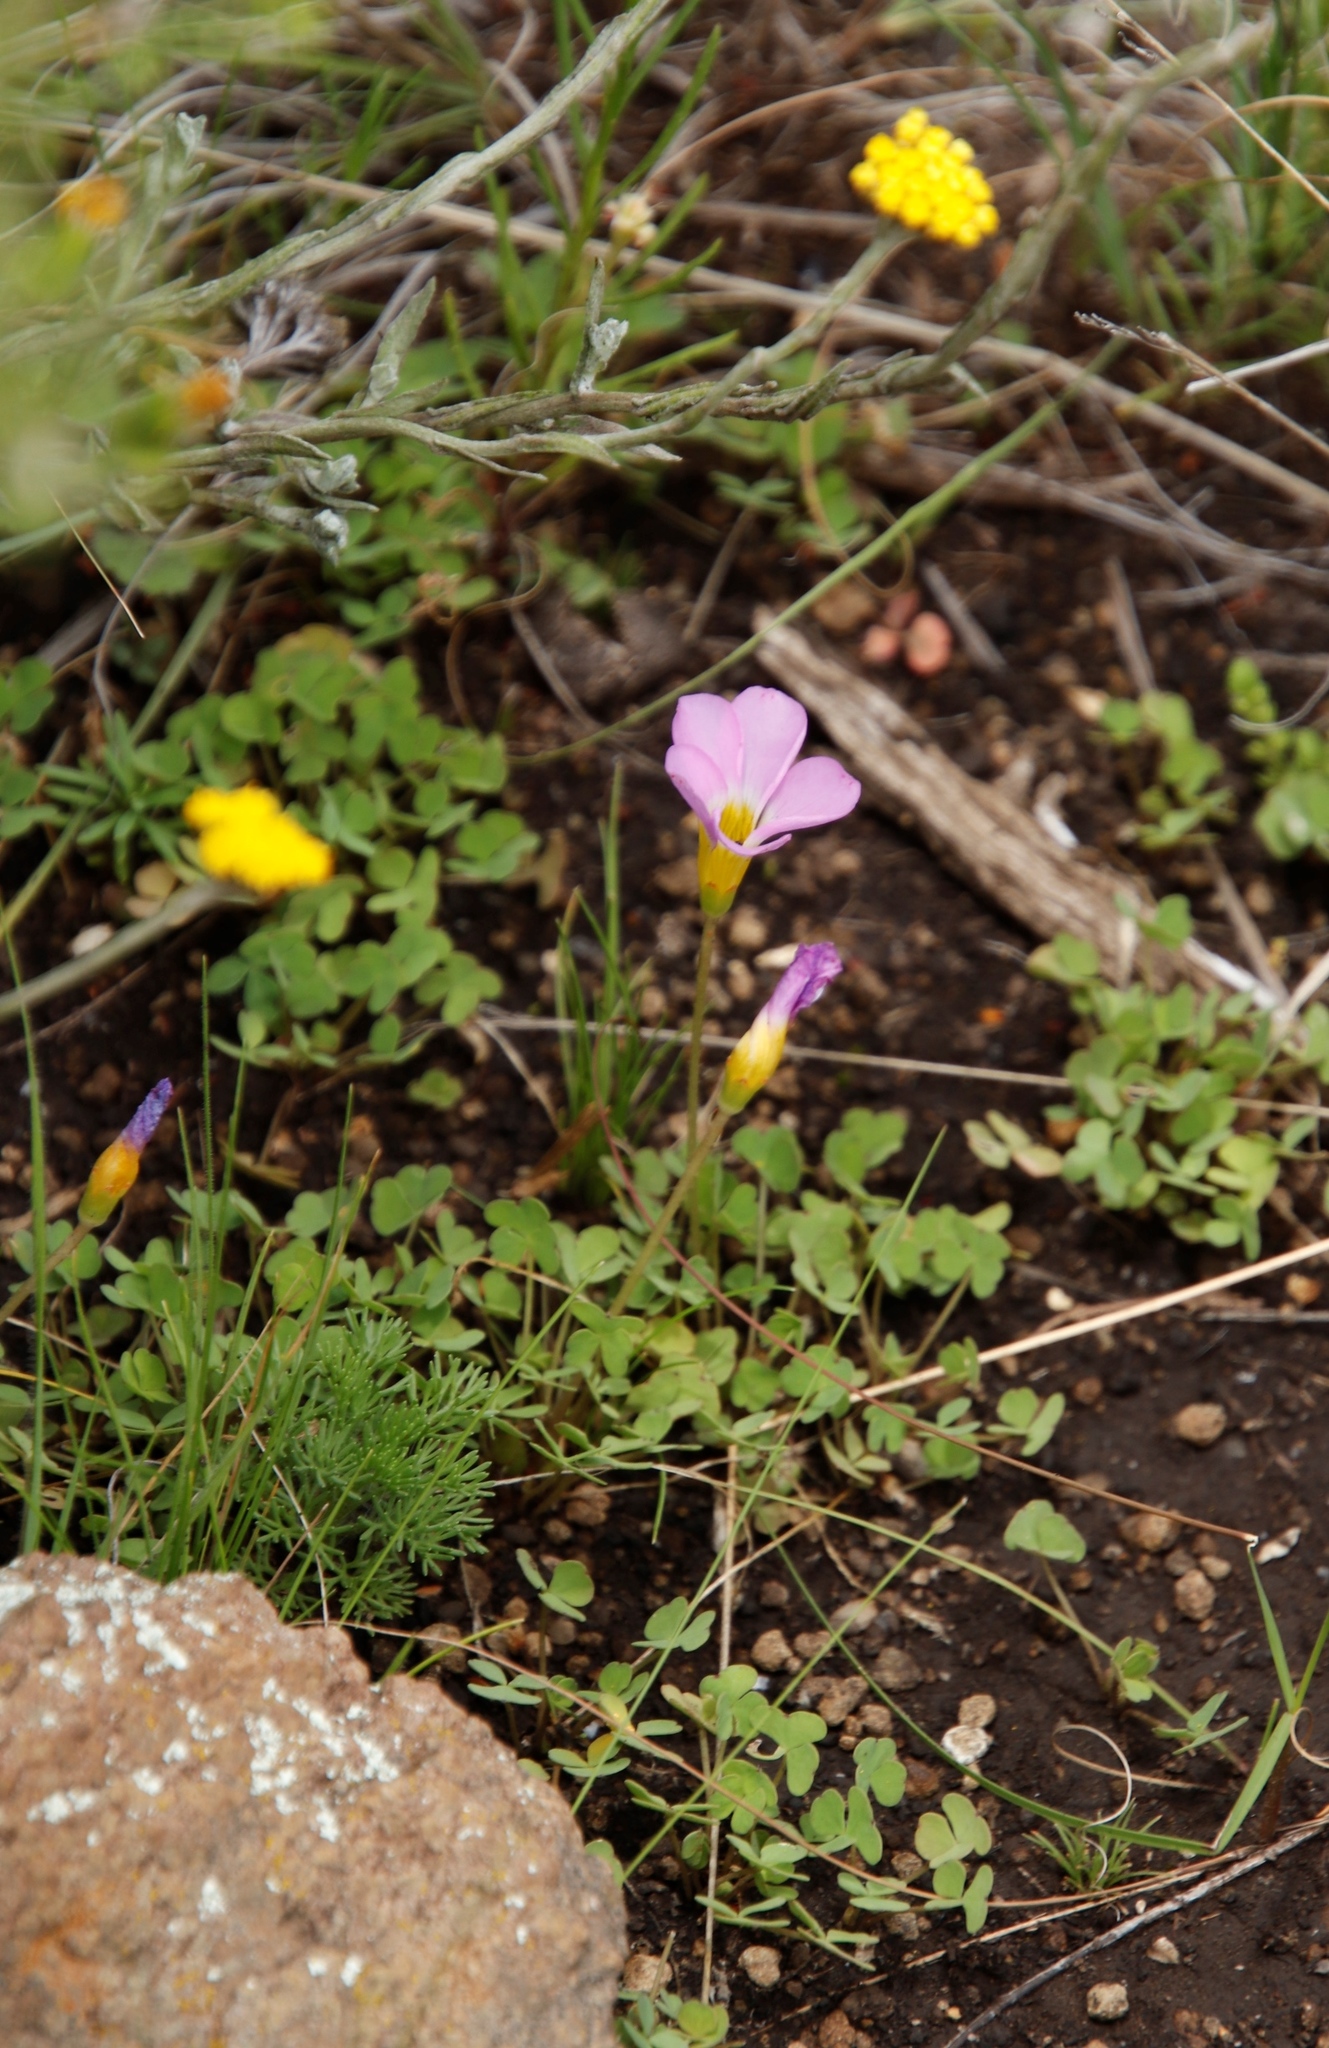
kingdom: Plantae
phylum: Tracheophyta
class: Magnoliopsida
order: Oxalidales
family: Oxalidaceae
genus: Oxalis
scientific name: Oxalis obliquifolia
